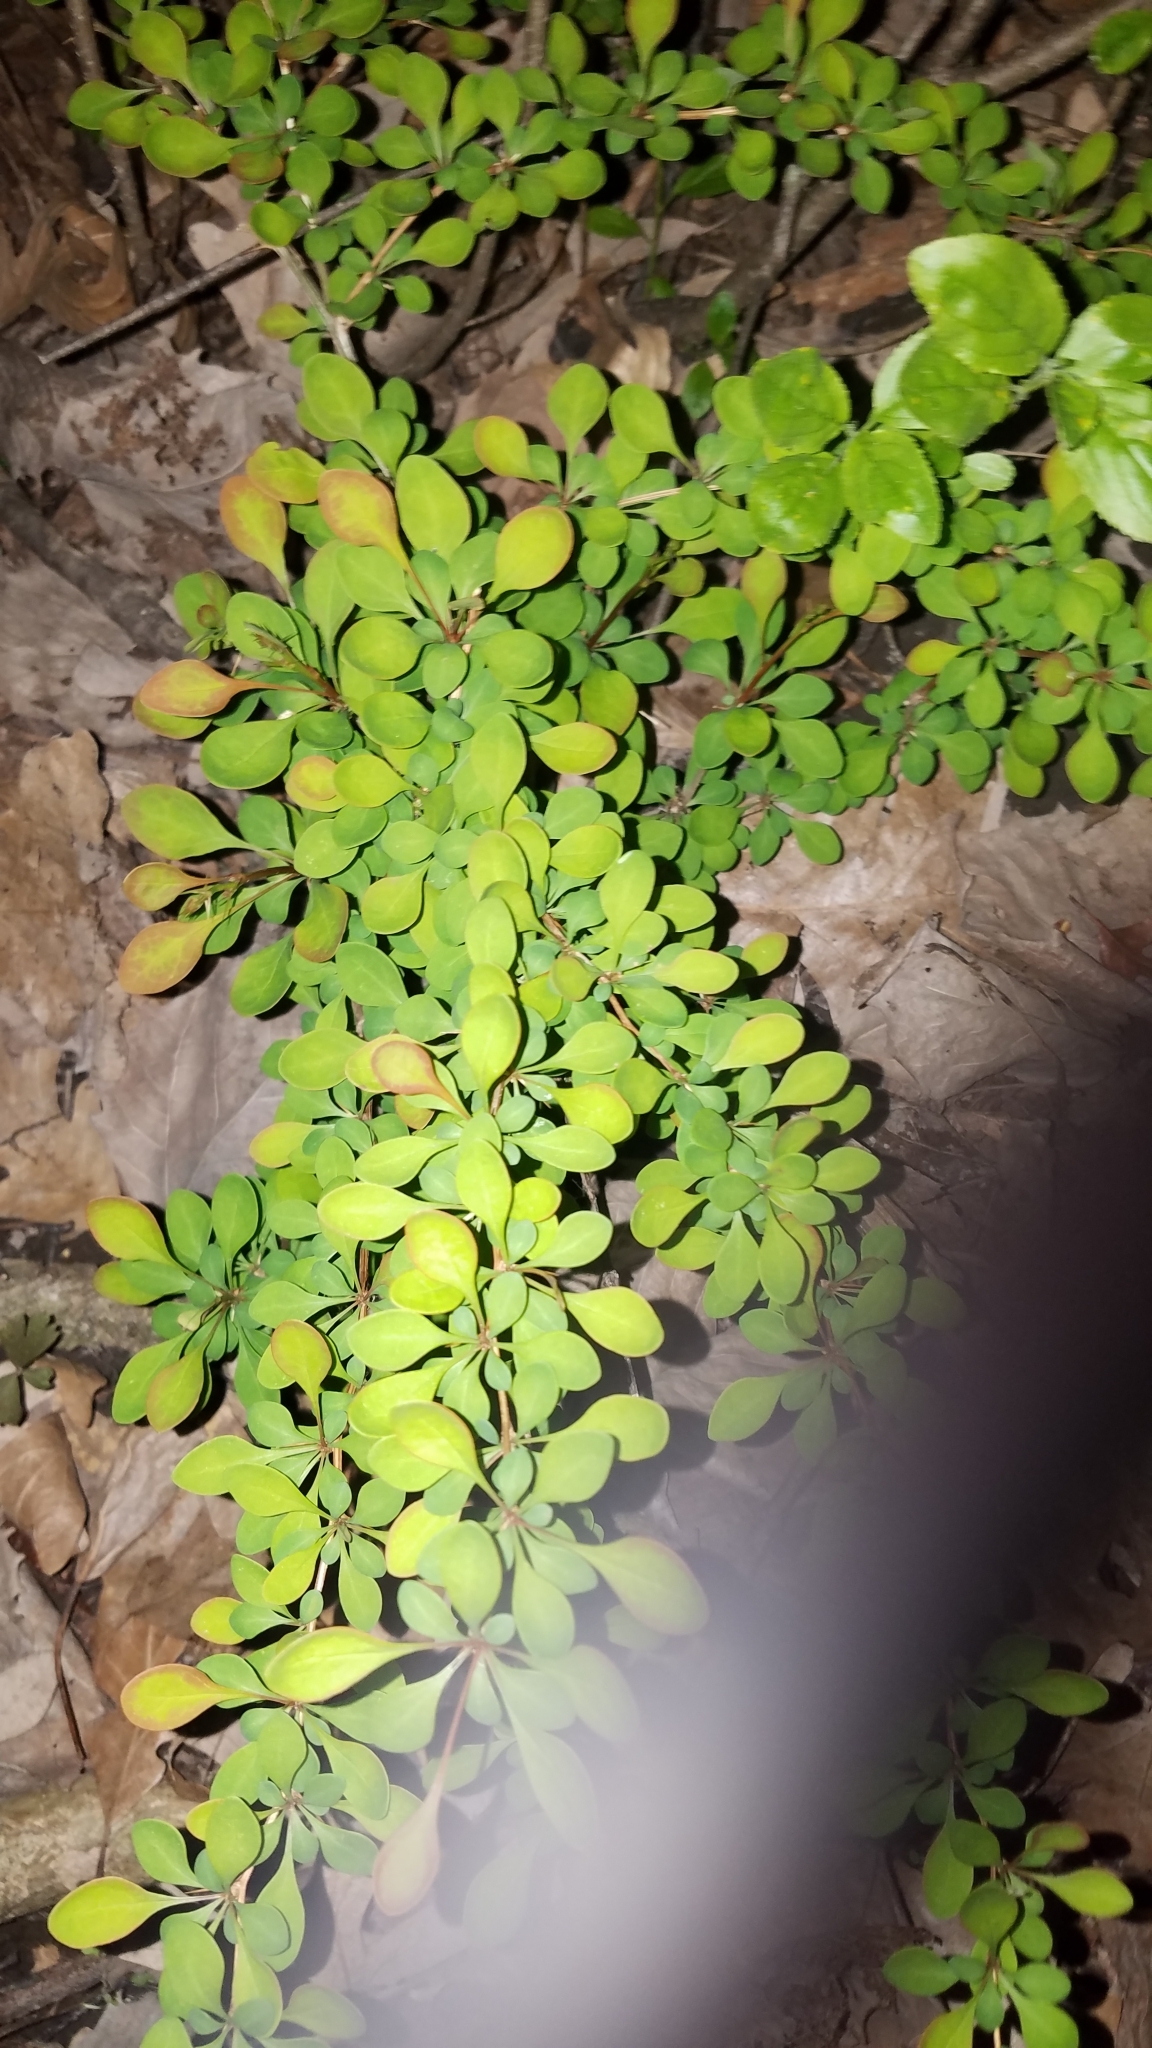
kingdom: Plantae
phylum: Tracheophyta
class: Magnoliopsida
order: Ranunculales
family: Berberidaceae
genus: Berberis
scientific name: Berberis thunbergii
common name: Japanese barberry
